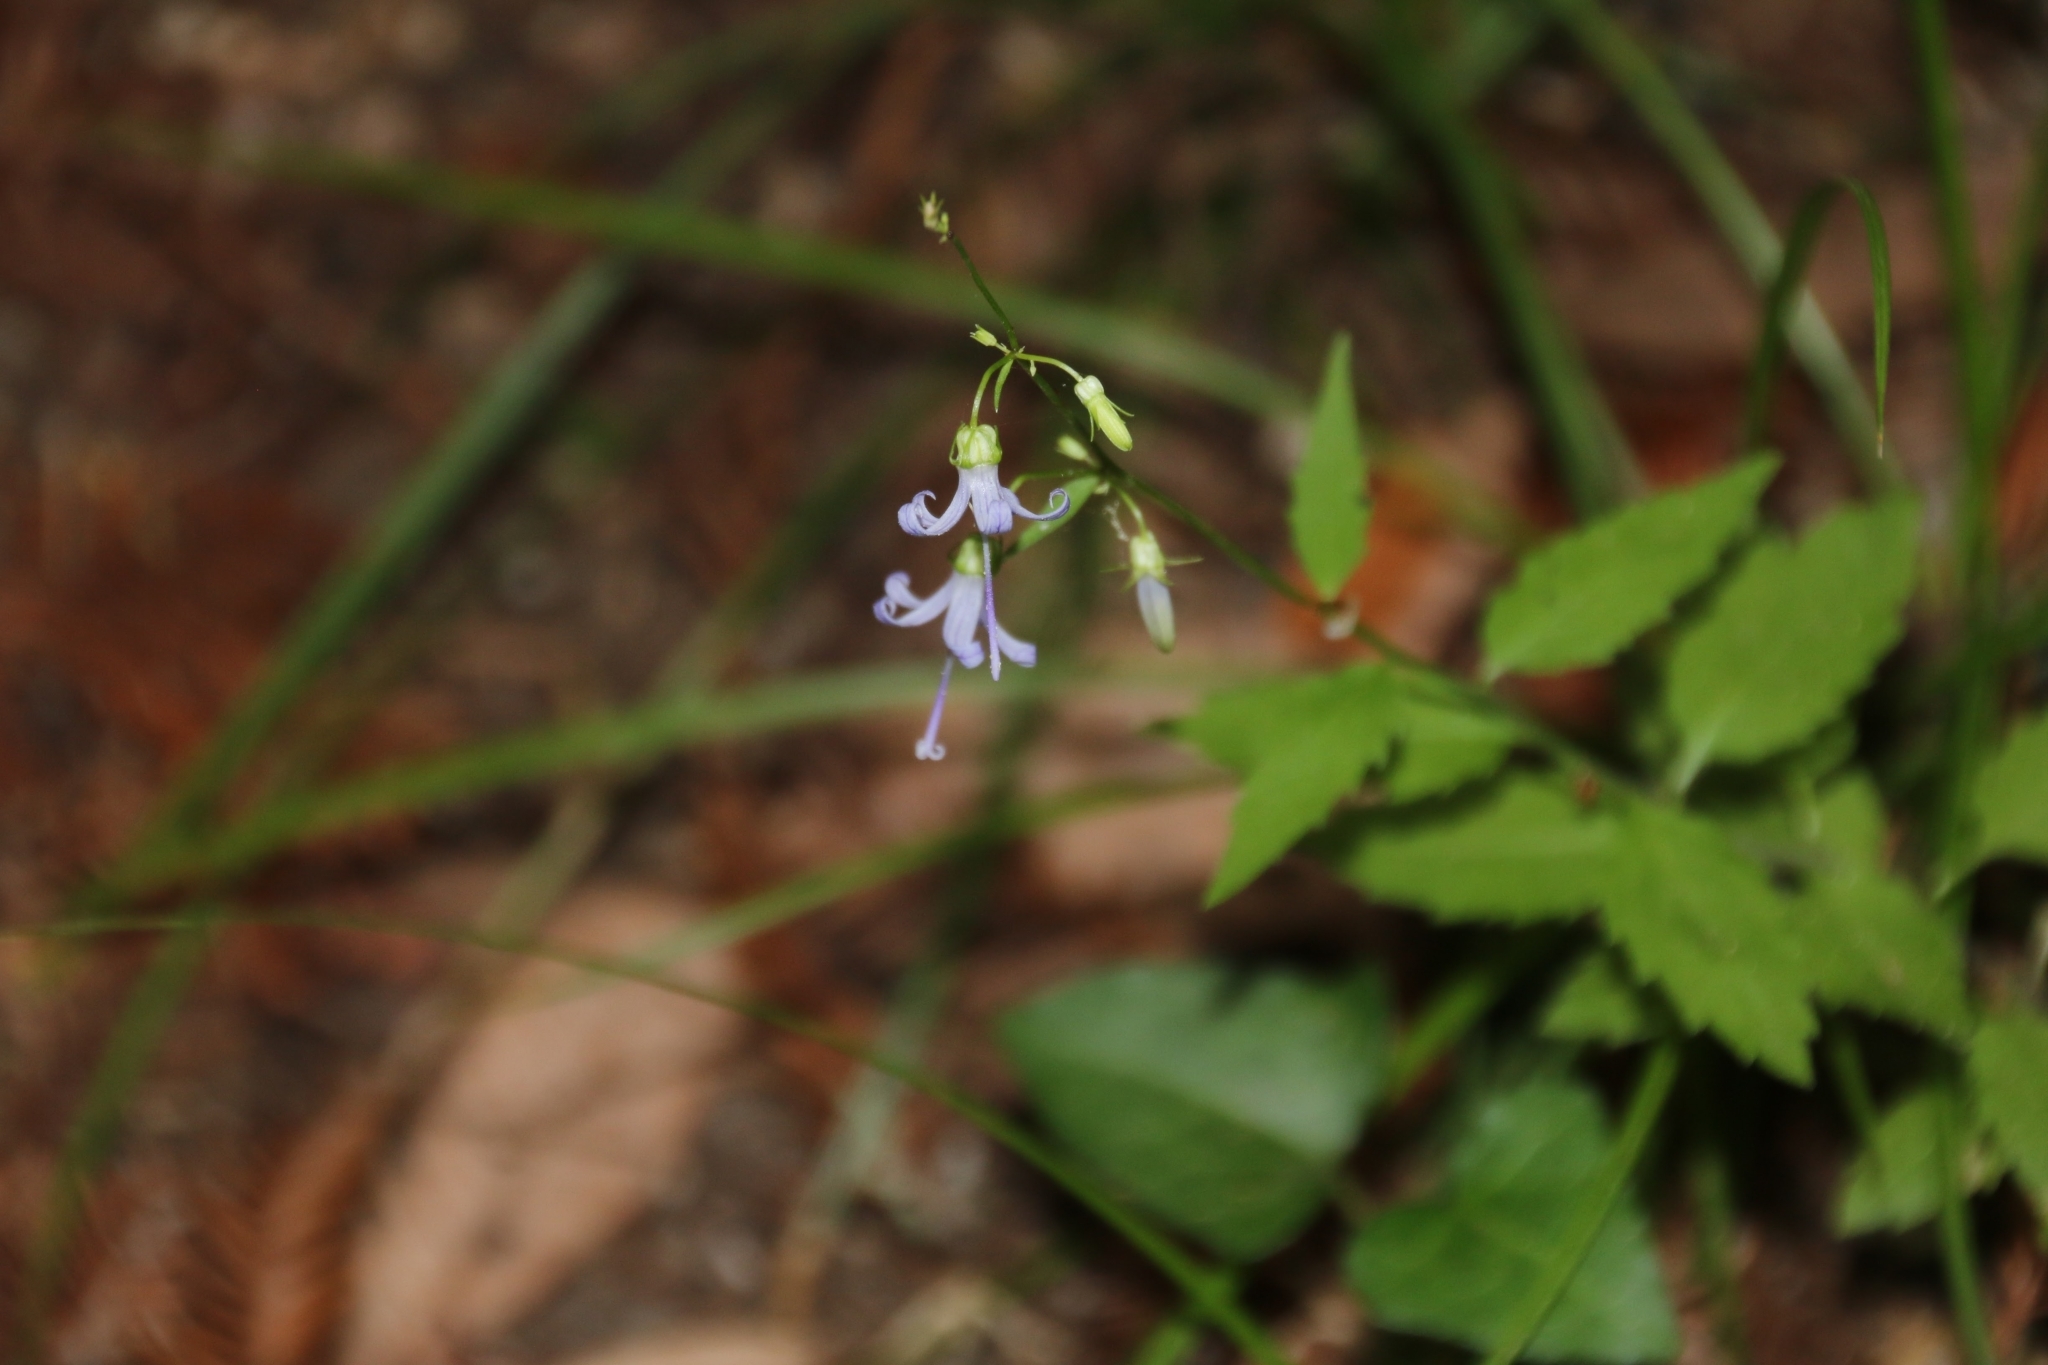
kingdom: Plantae
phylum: Tracheophyta
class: Magnoliopsida
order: Asterales
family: Campanulaceae
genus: Smithiastrum
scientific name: Smithiastrum prenanthoides
